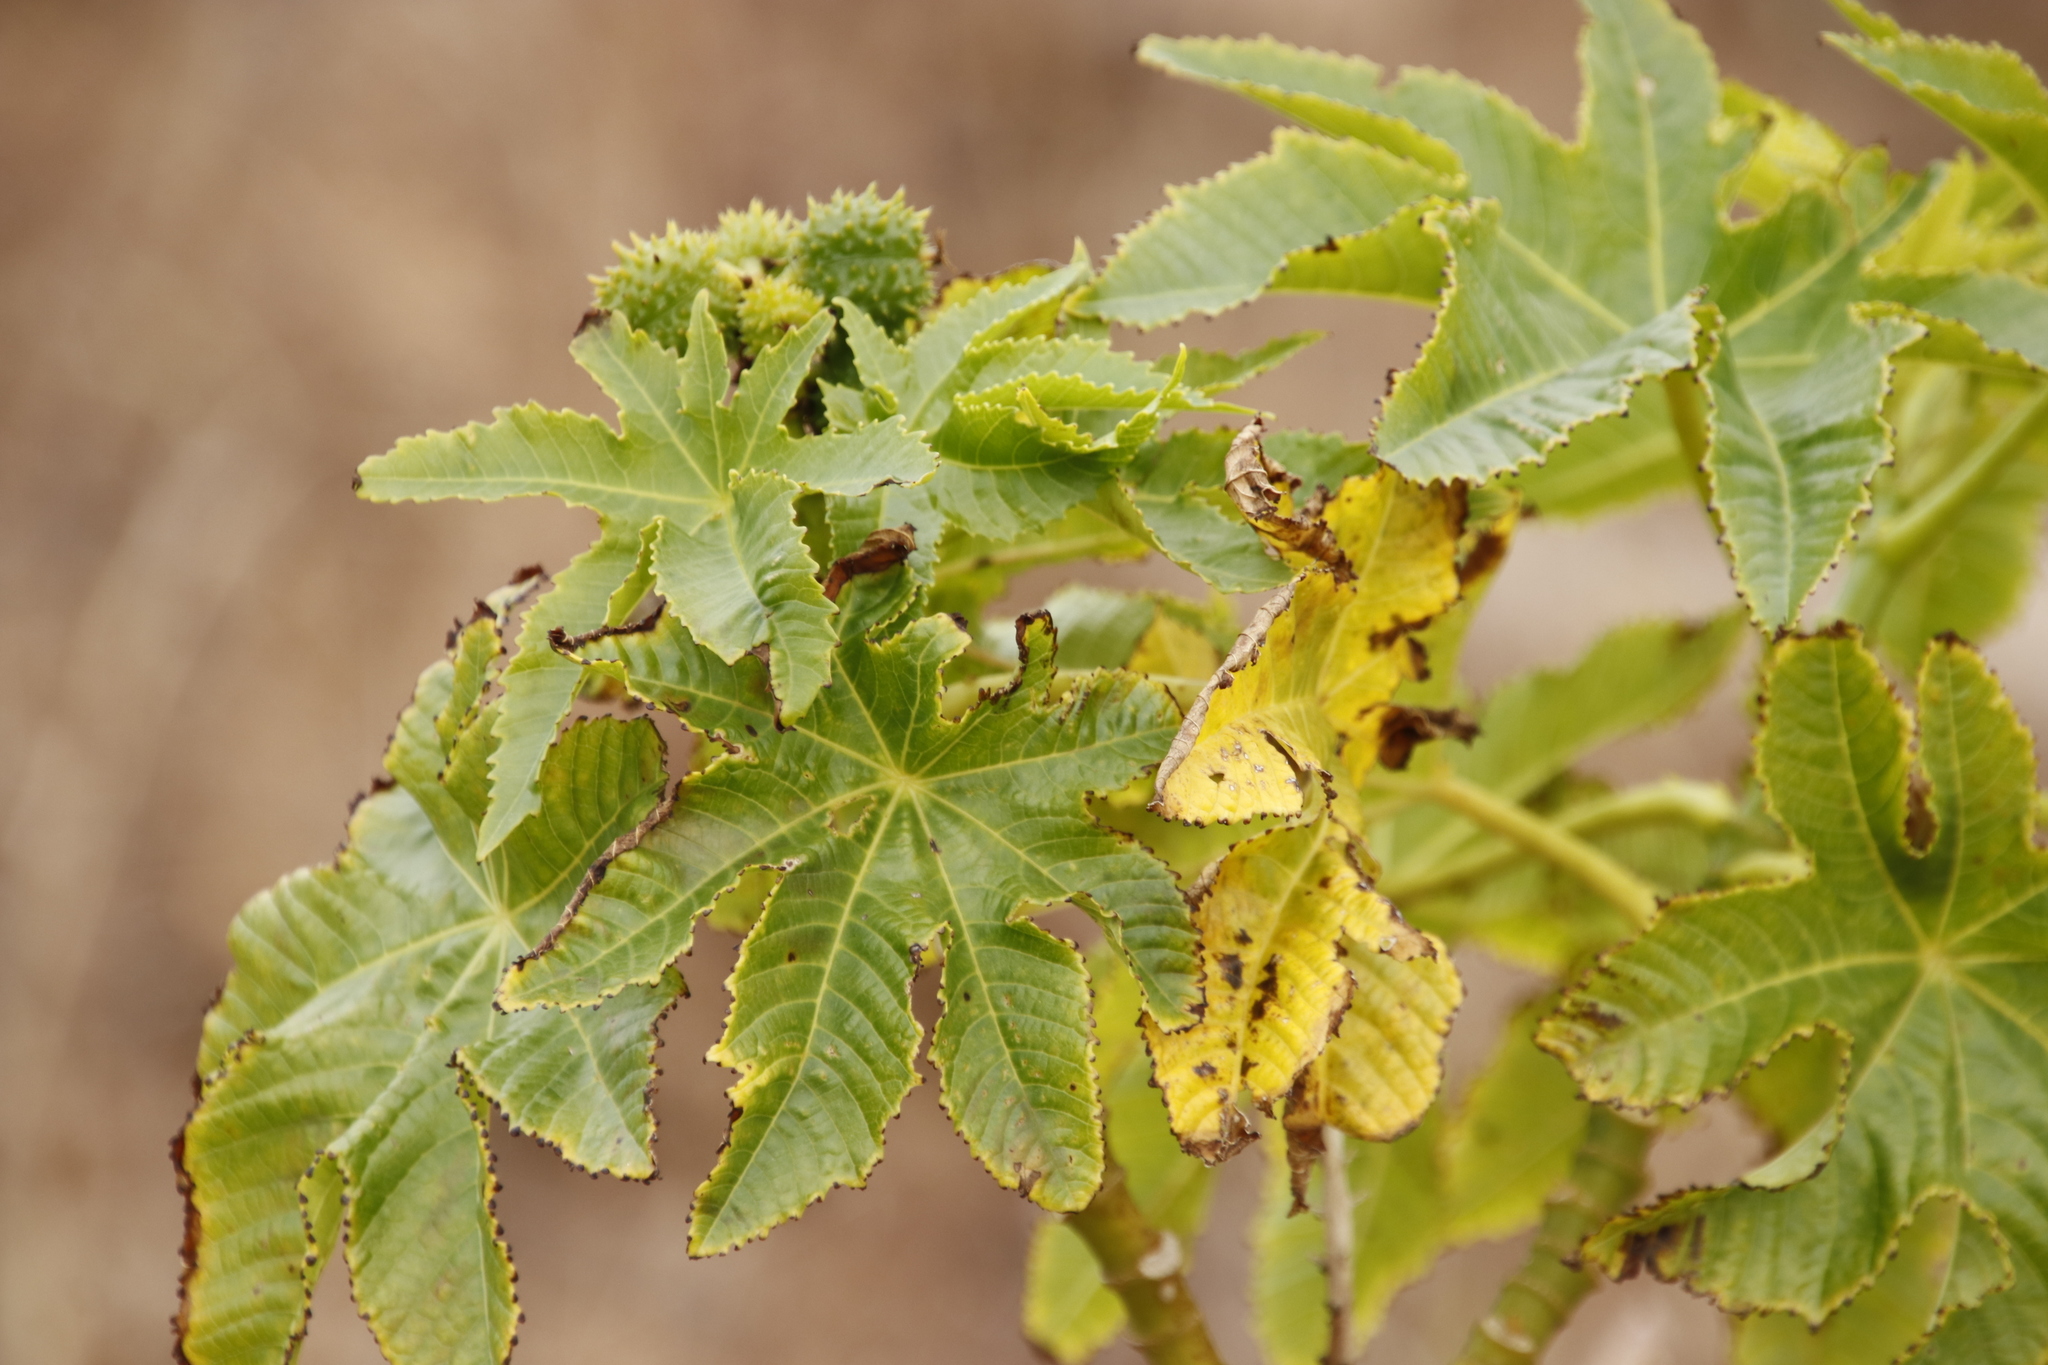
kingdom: Plantae
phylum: Tracheophyta
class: Magnoliopsida
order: Malpighiales
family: Euphorbiaceae
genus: Ricinus
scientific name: Ricinus communis
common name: Castor-oil-plant
